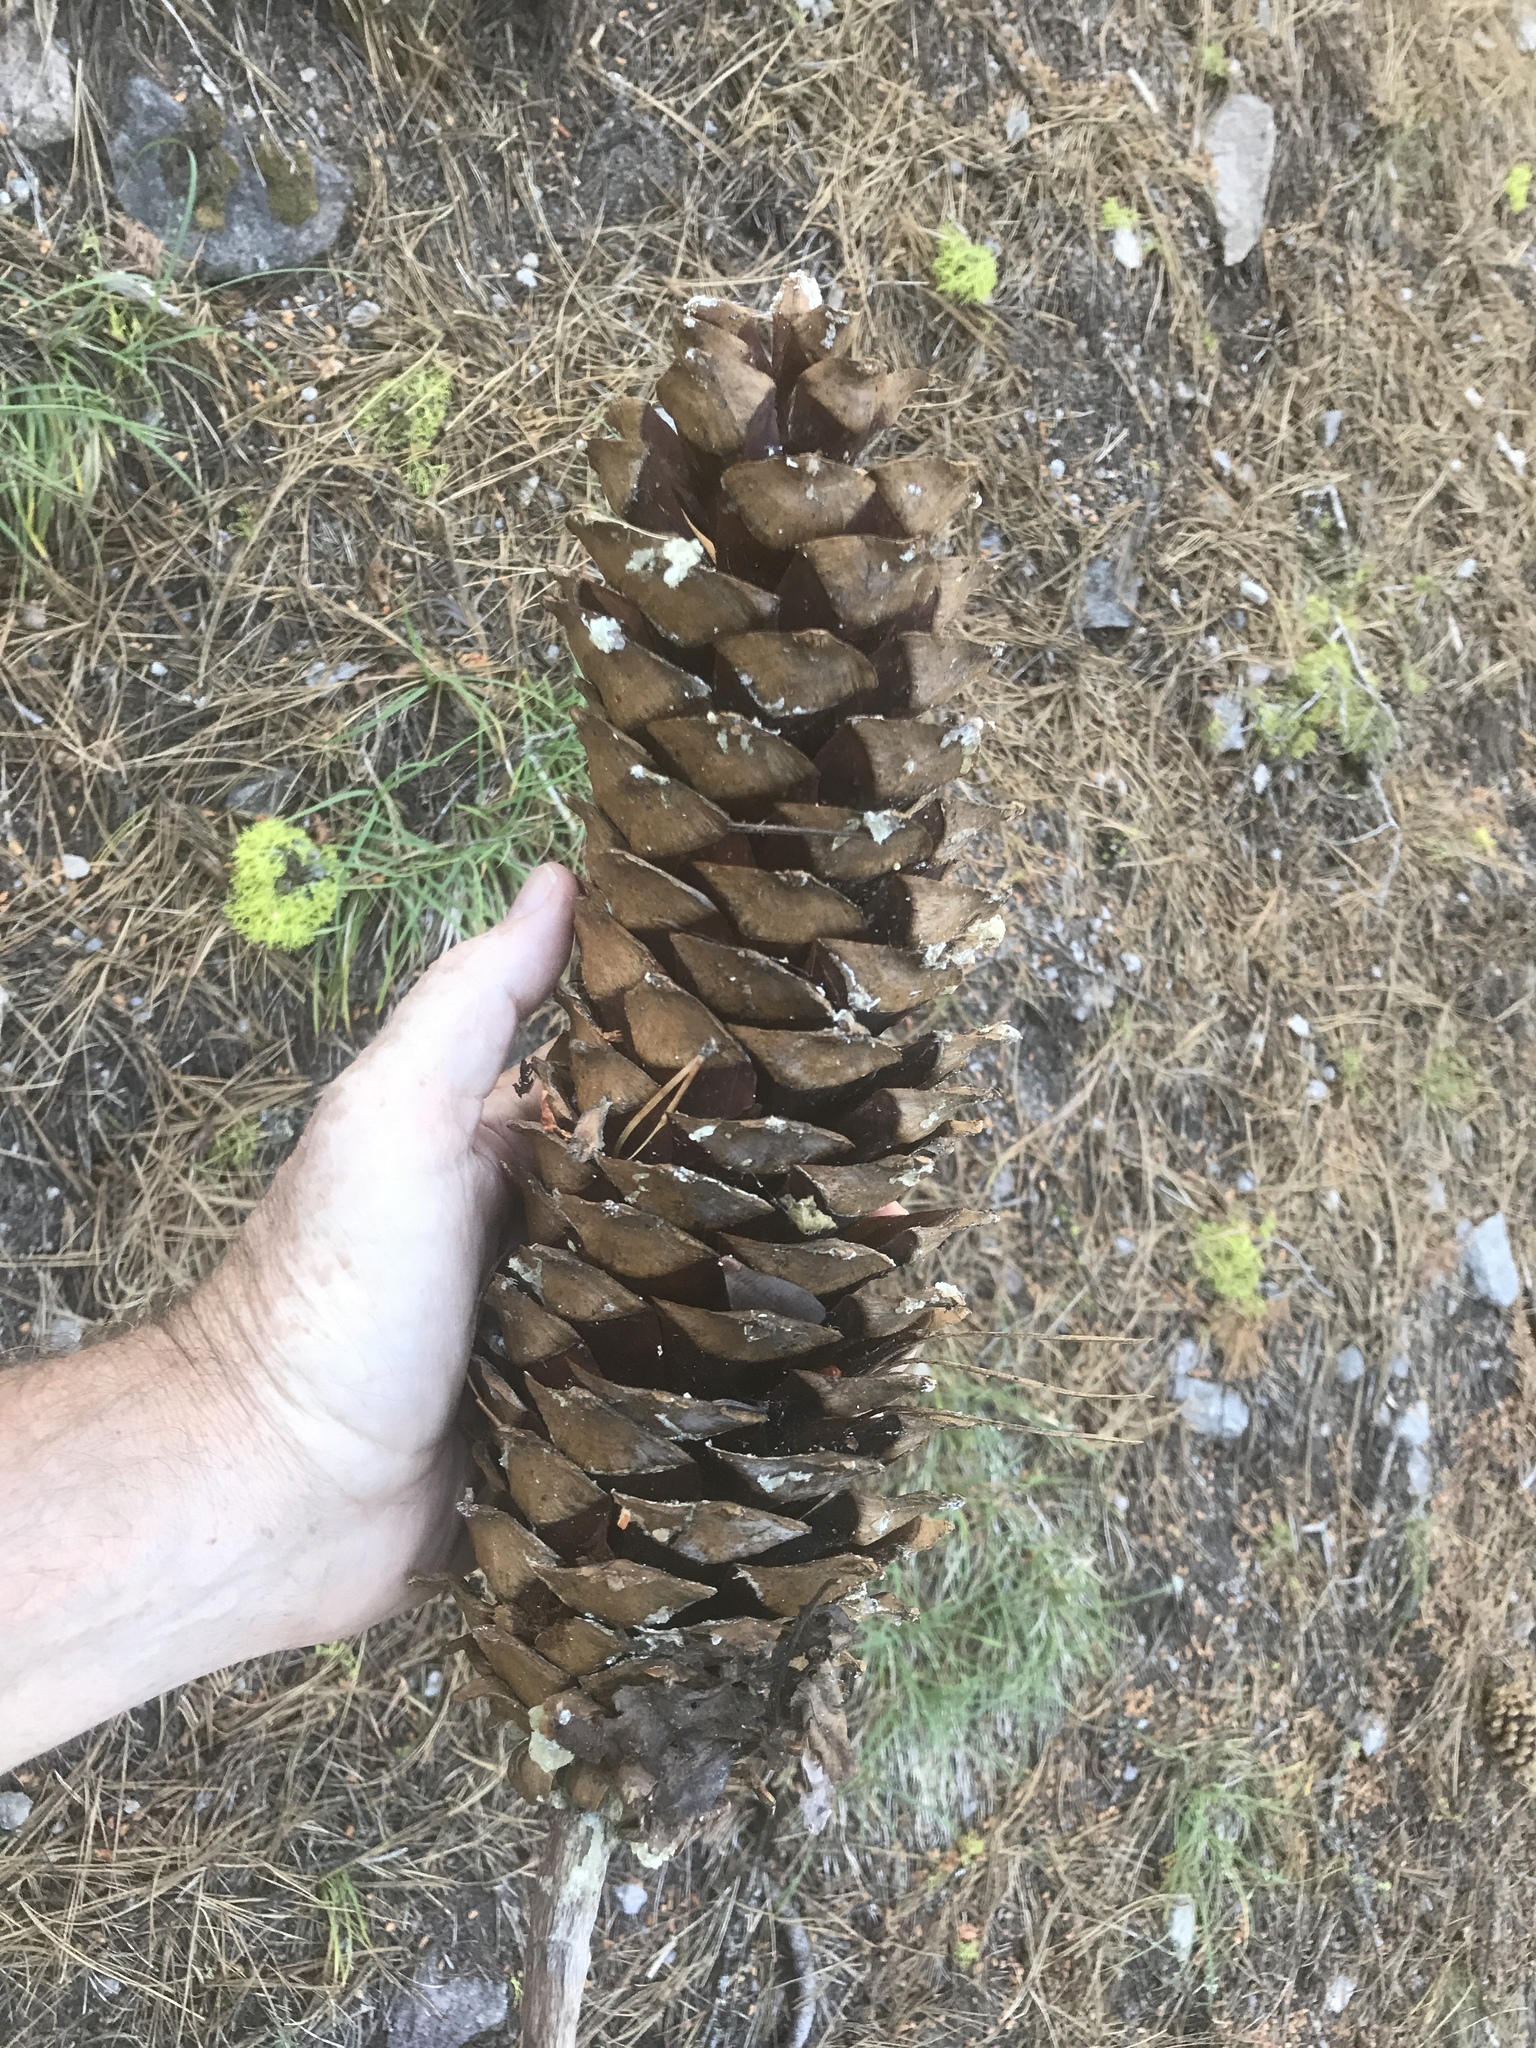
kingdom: Plantae
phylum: Tracheophyta
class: Pinopsida
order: Pinales
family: Pinaceae
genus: Pinus
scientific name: Pinus lambertiana
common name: Sugar pine
